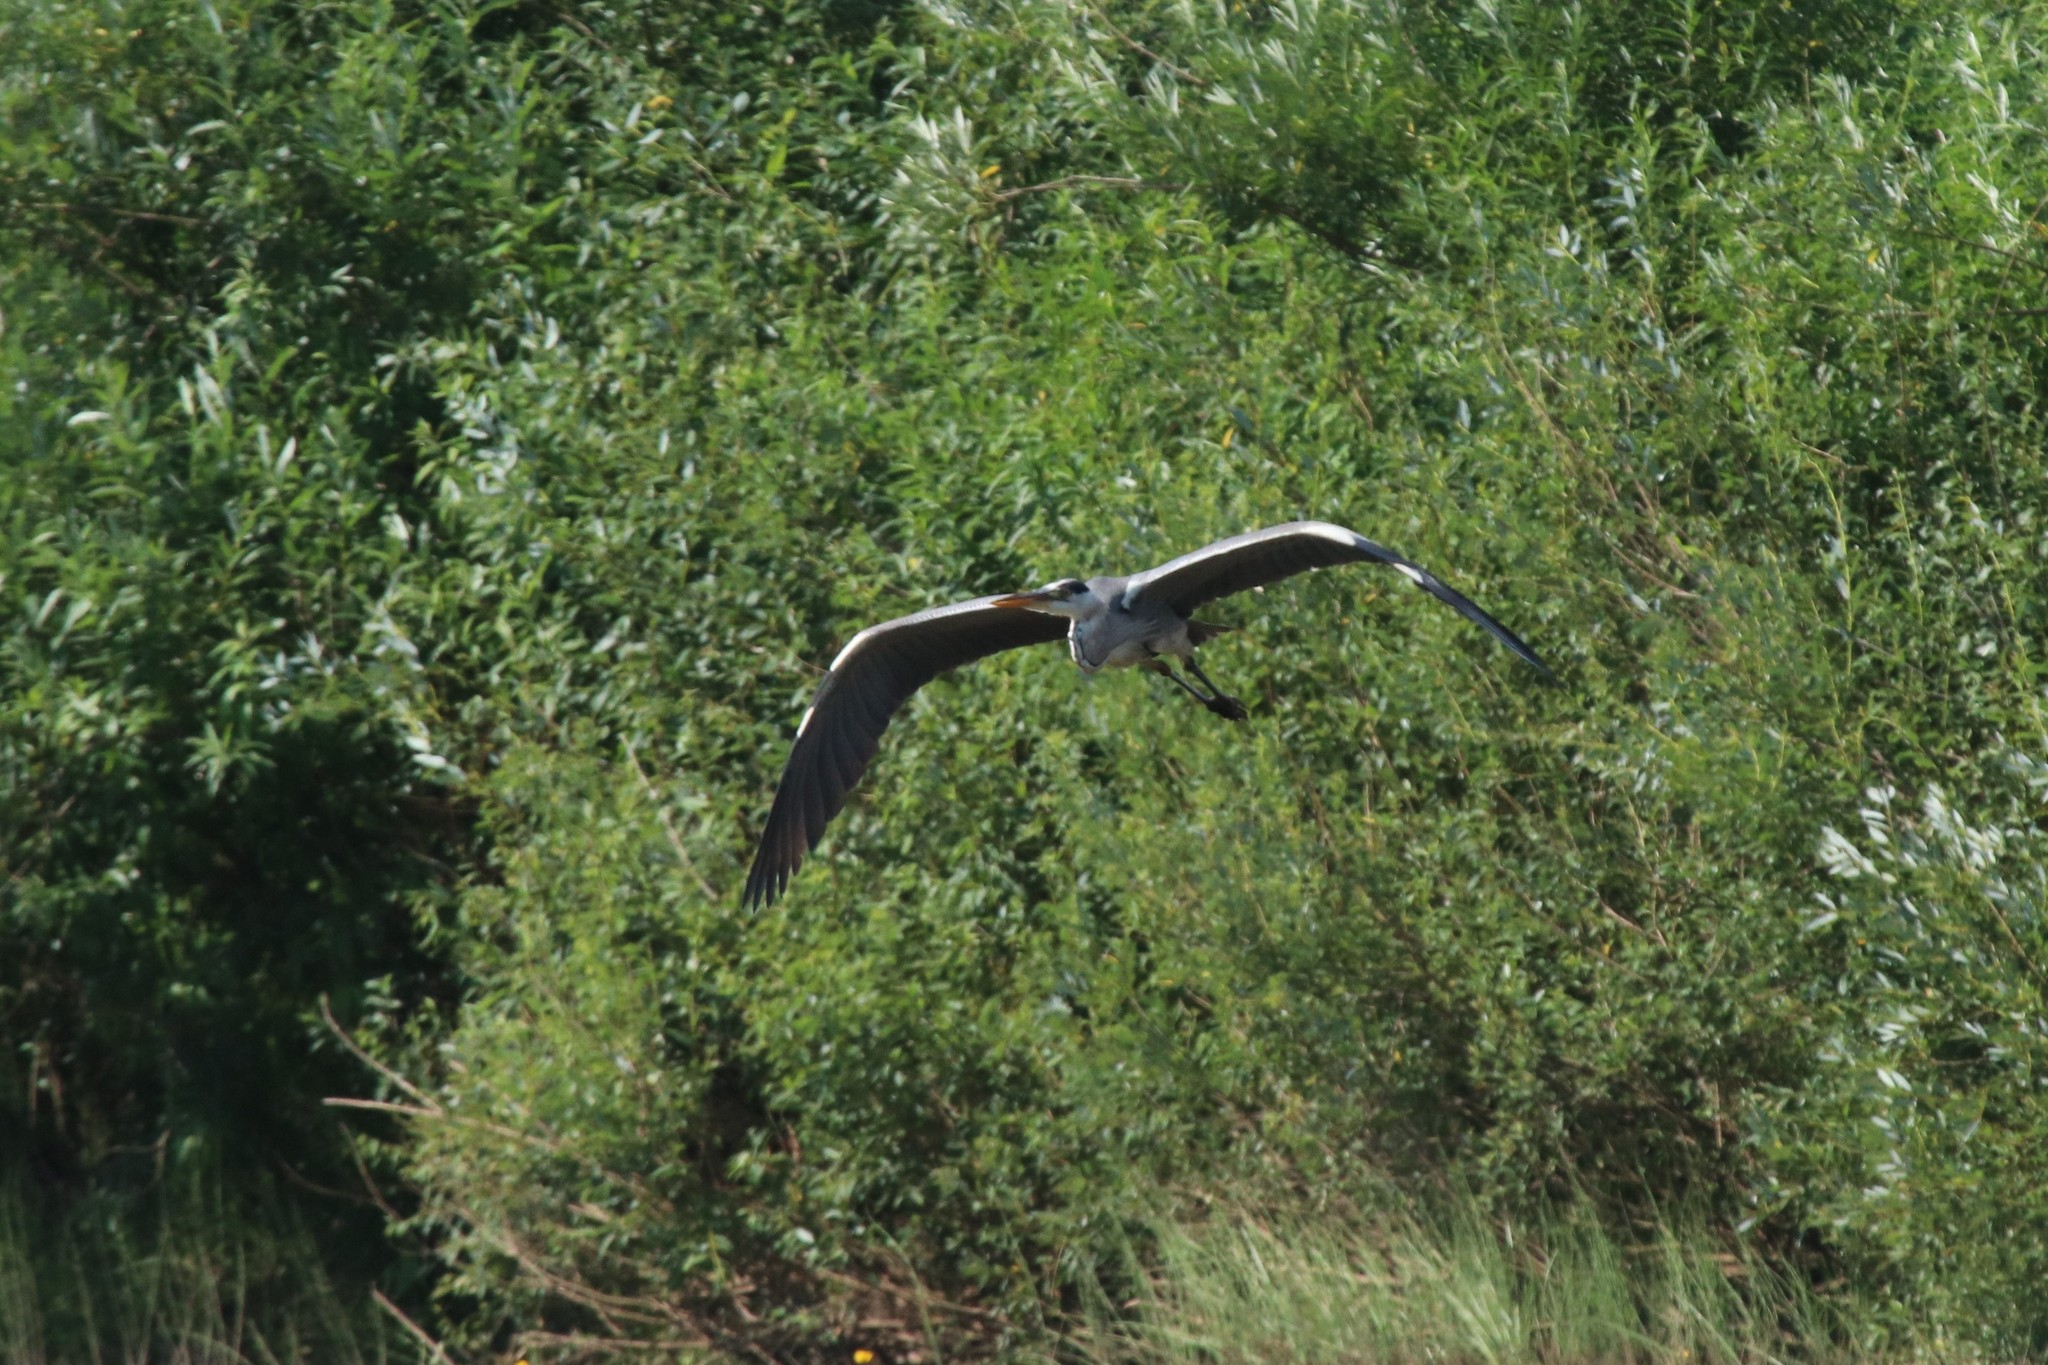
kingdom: Animalia
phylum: Chordata
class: Aves
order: Pelecaniformes
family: Ardeidae
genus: Ardea
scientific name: Ardea cinerea
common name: Grey heron
